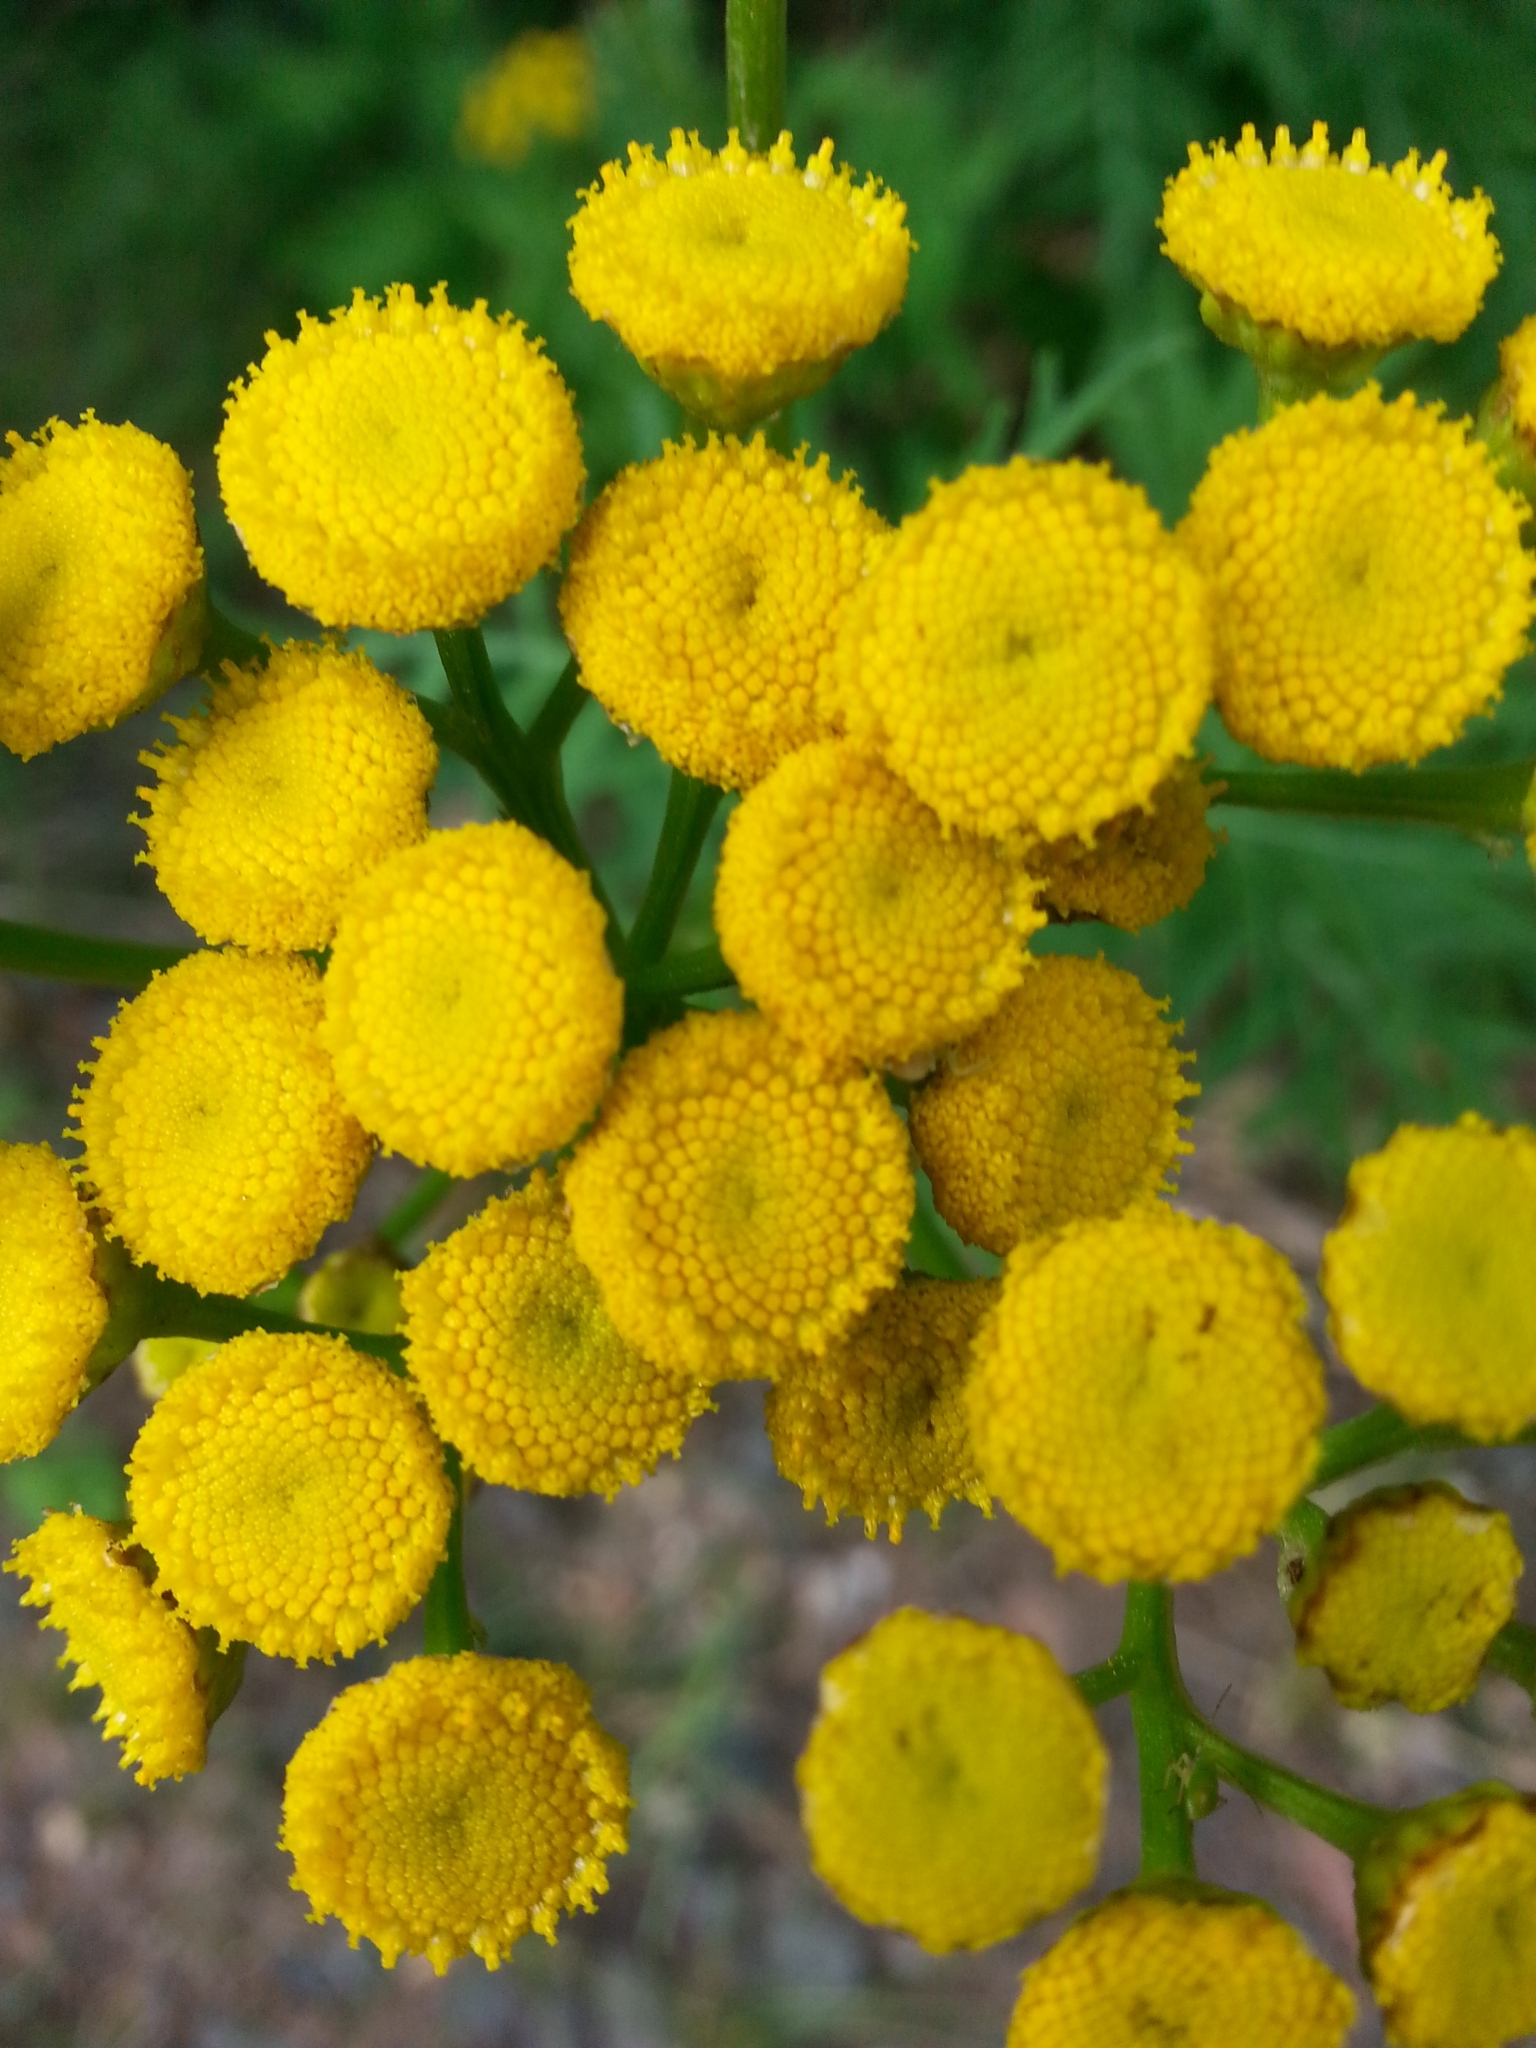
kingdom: Plantae
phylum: Tracheophyta
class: Magnoliopsida
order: Asterales
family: Asteraceae
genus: Tanacetum
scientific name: Tanacetum vulgare
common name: Common tansy
